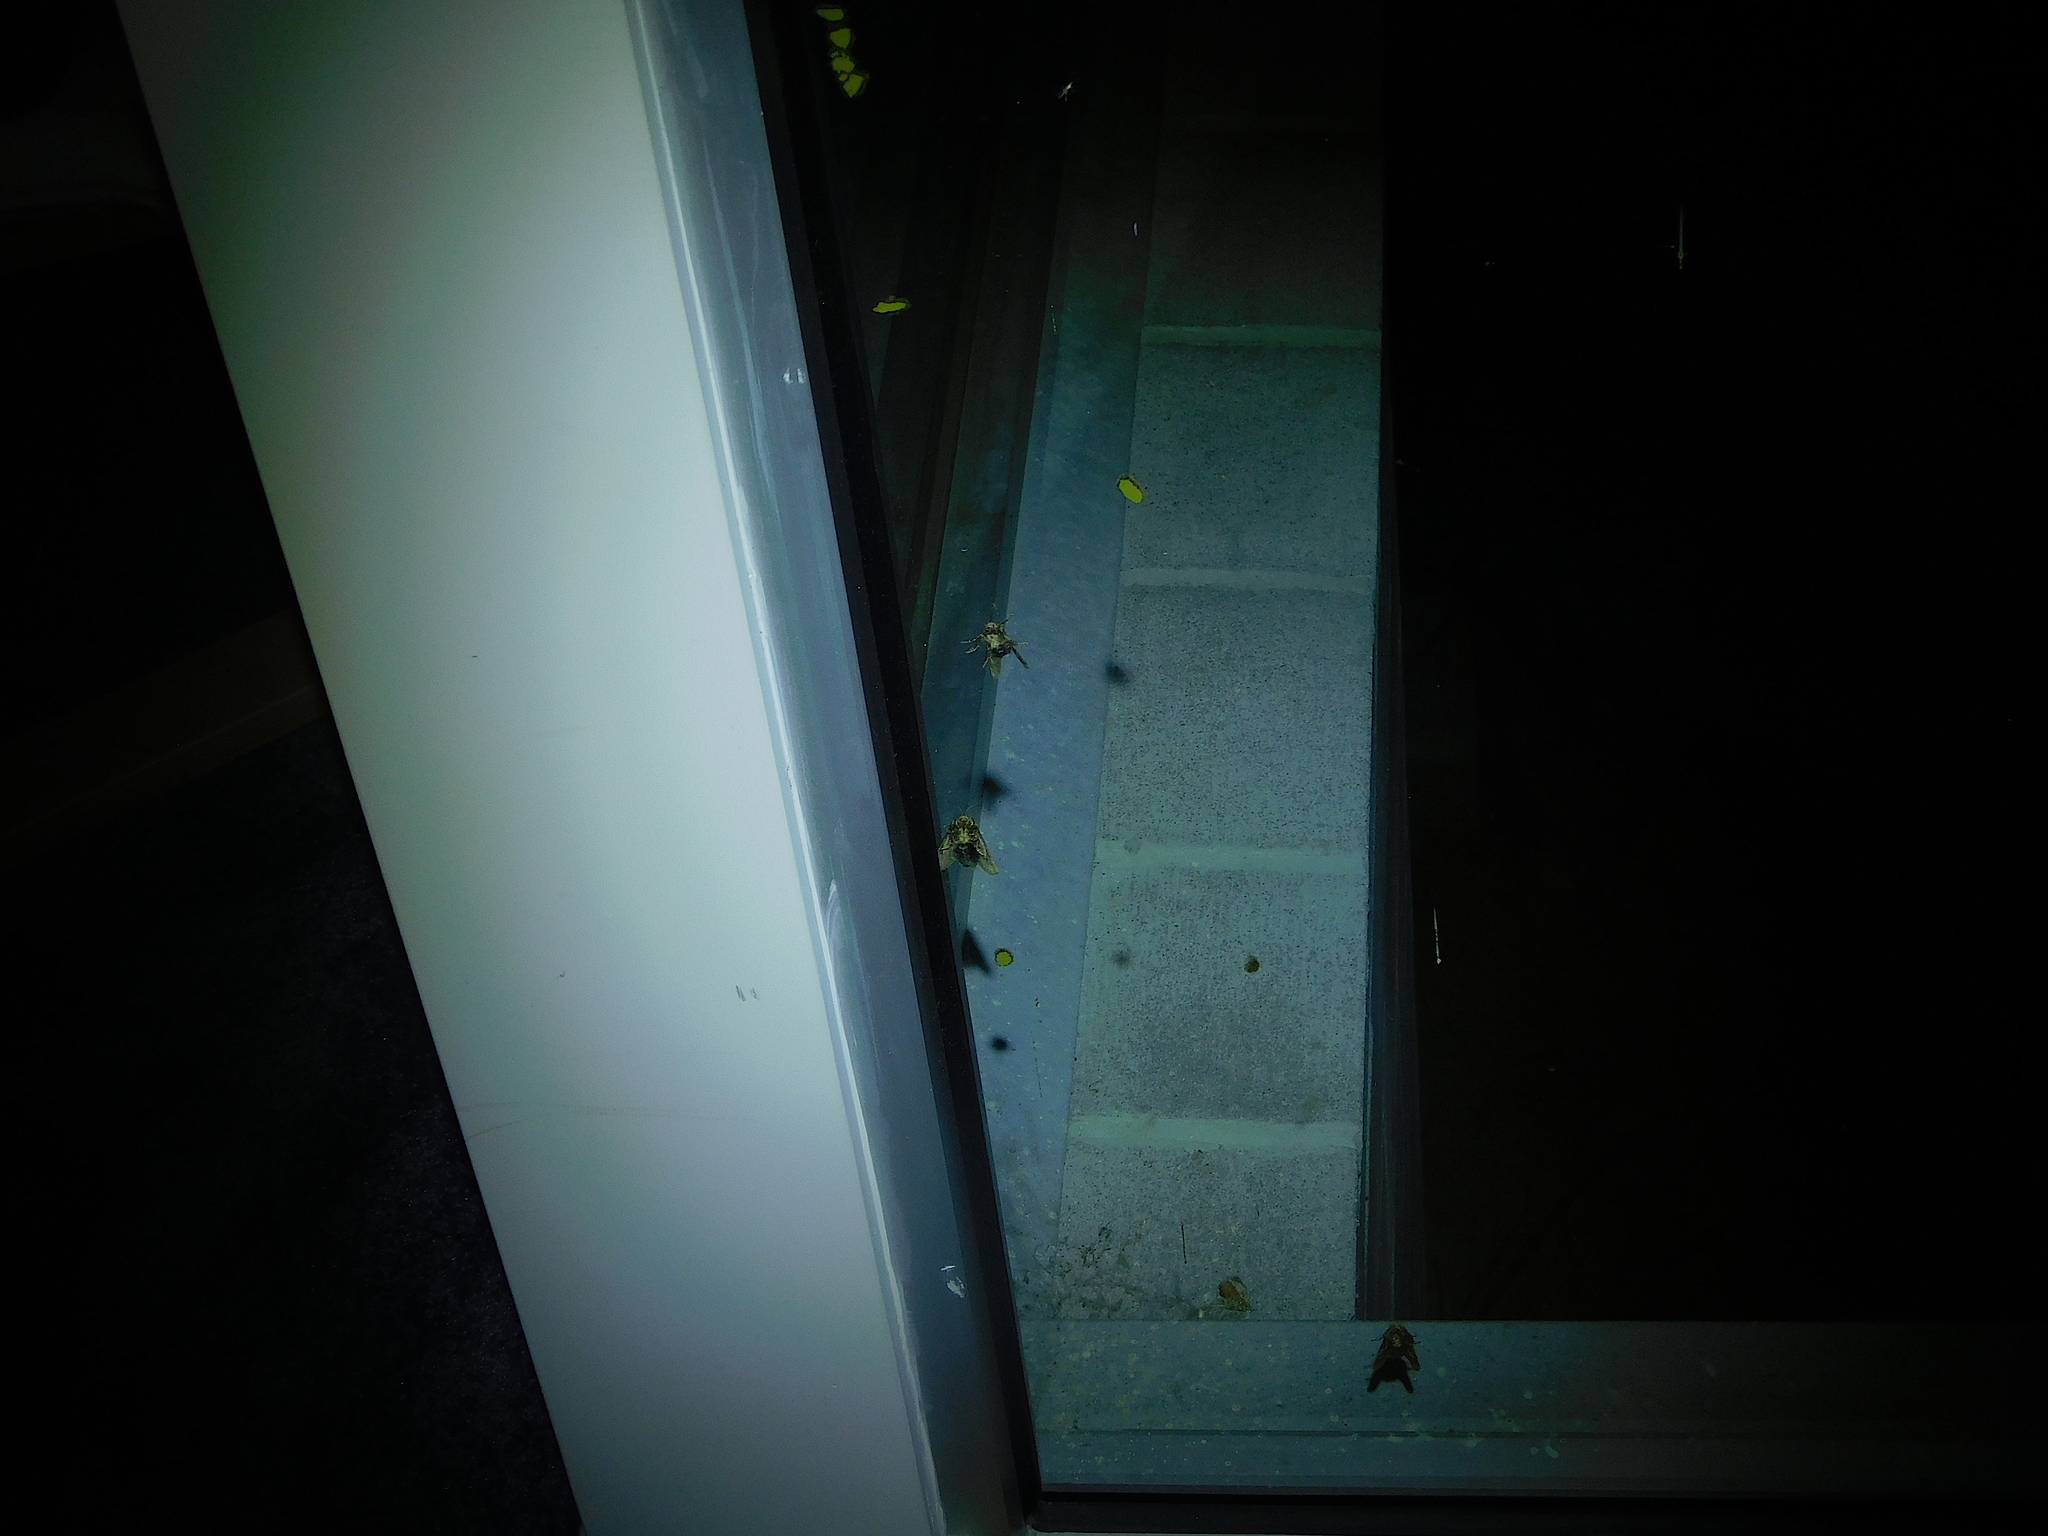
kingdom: Animalia
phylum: Arthropoda
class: Insecta
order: Lepidoptera
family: Limacodidae
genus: Doratifera
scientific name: Doratifera oxleyi
